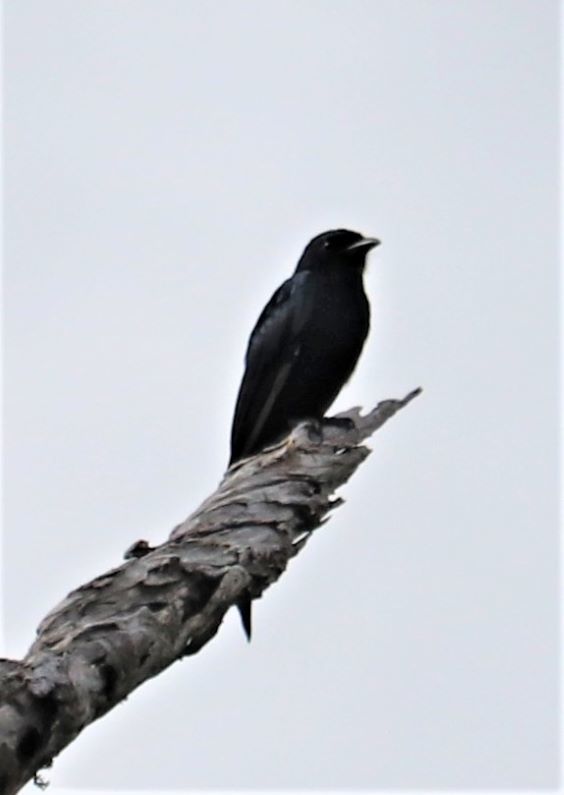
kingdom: Animalia
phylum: Chordata
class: Aves
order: Passeriformes
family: Dicruridae
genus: Dicrurus
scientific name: Dicrurus adsimilis
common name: Fork-tailed drongo
